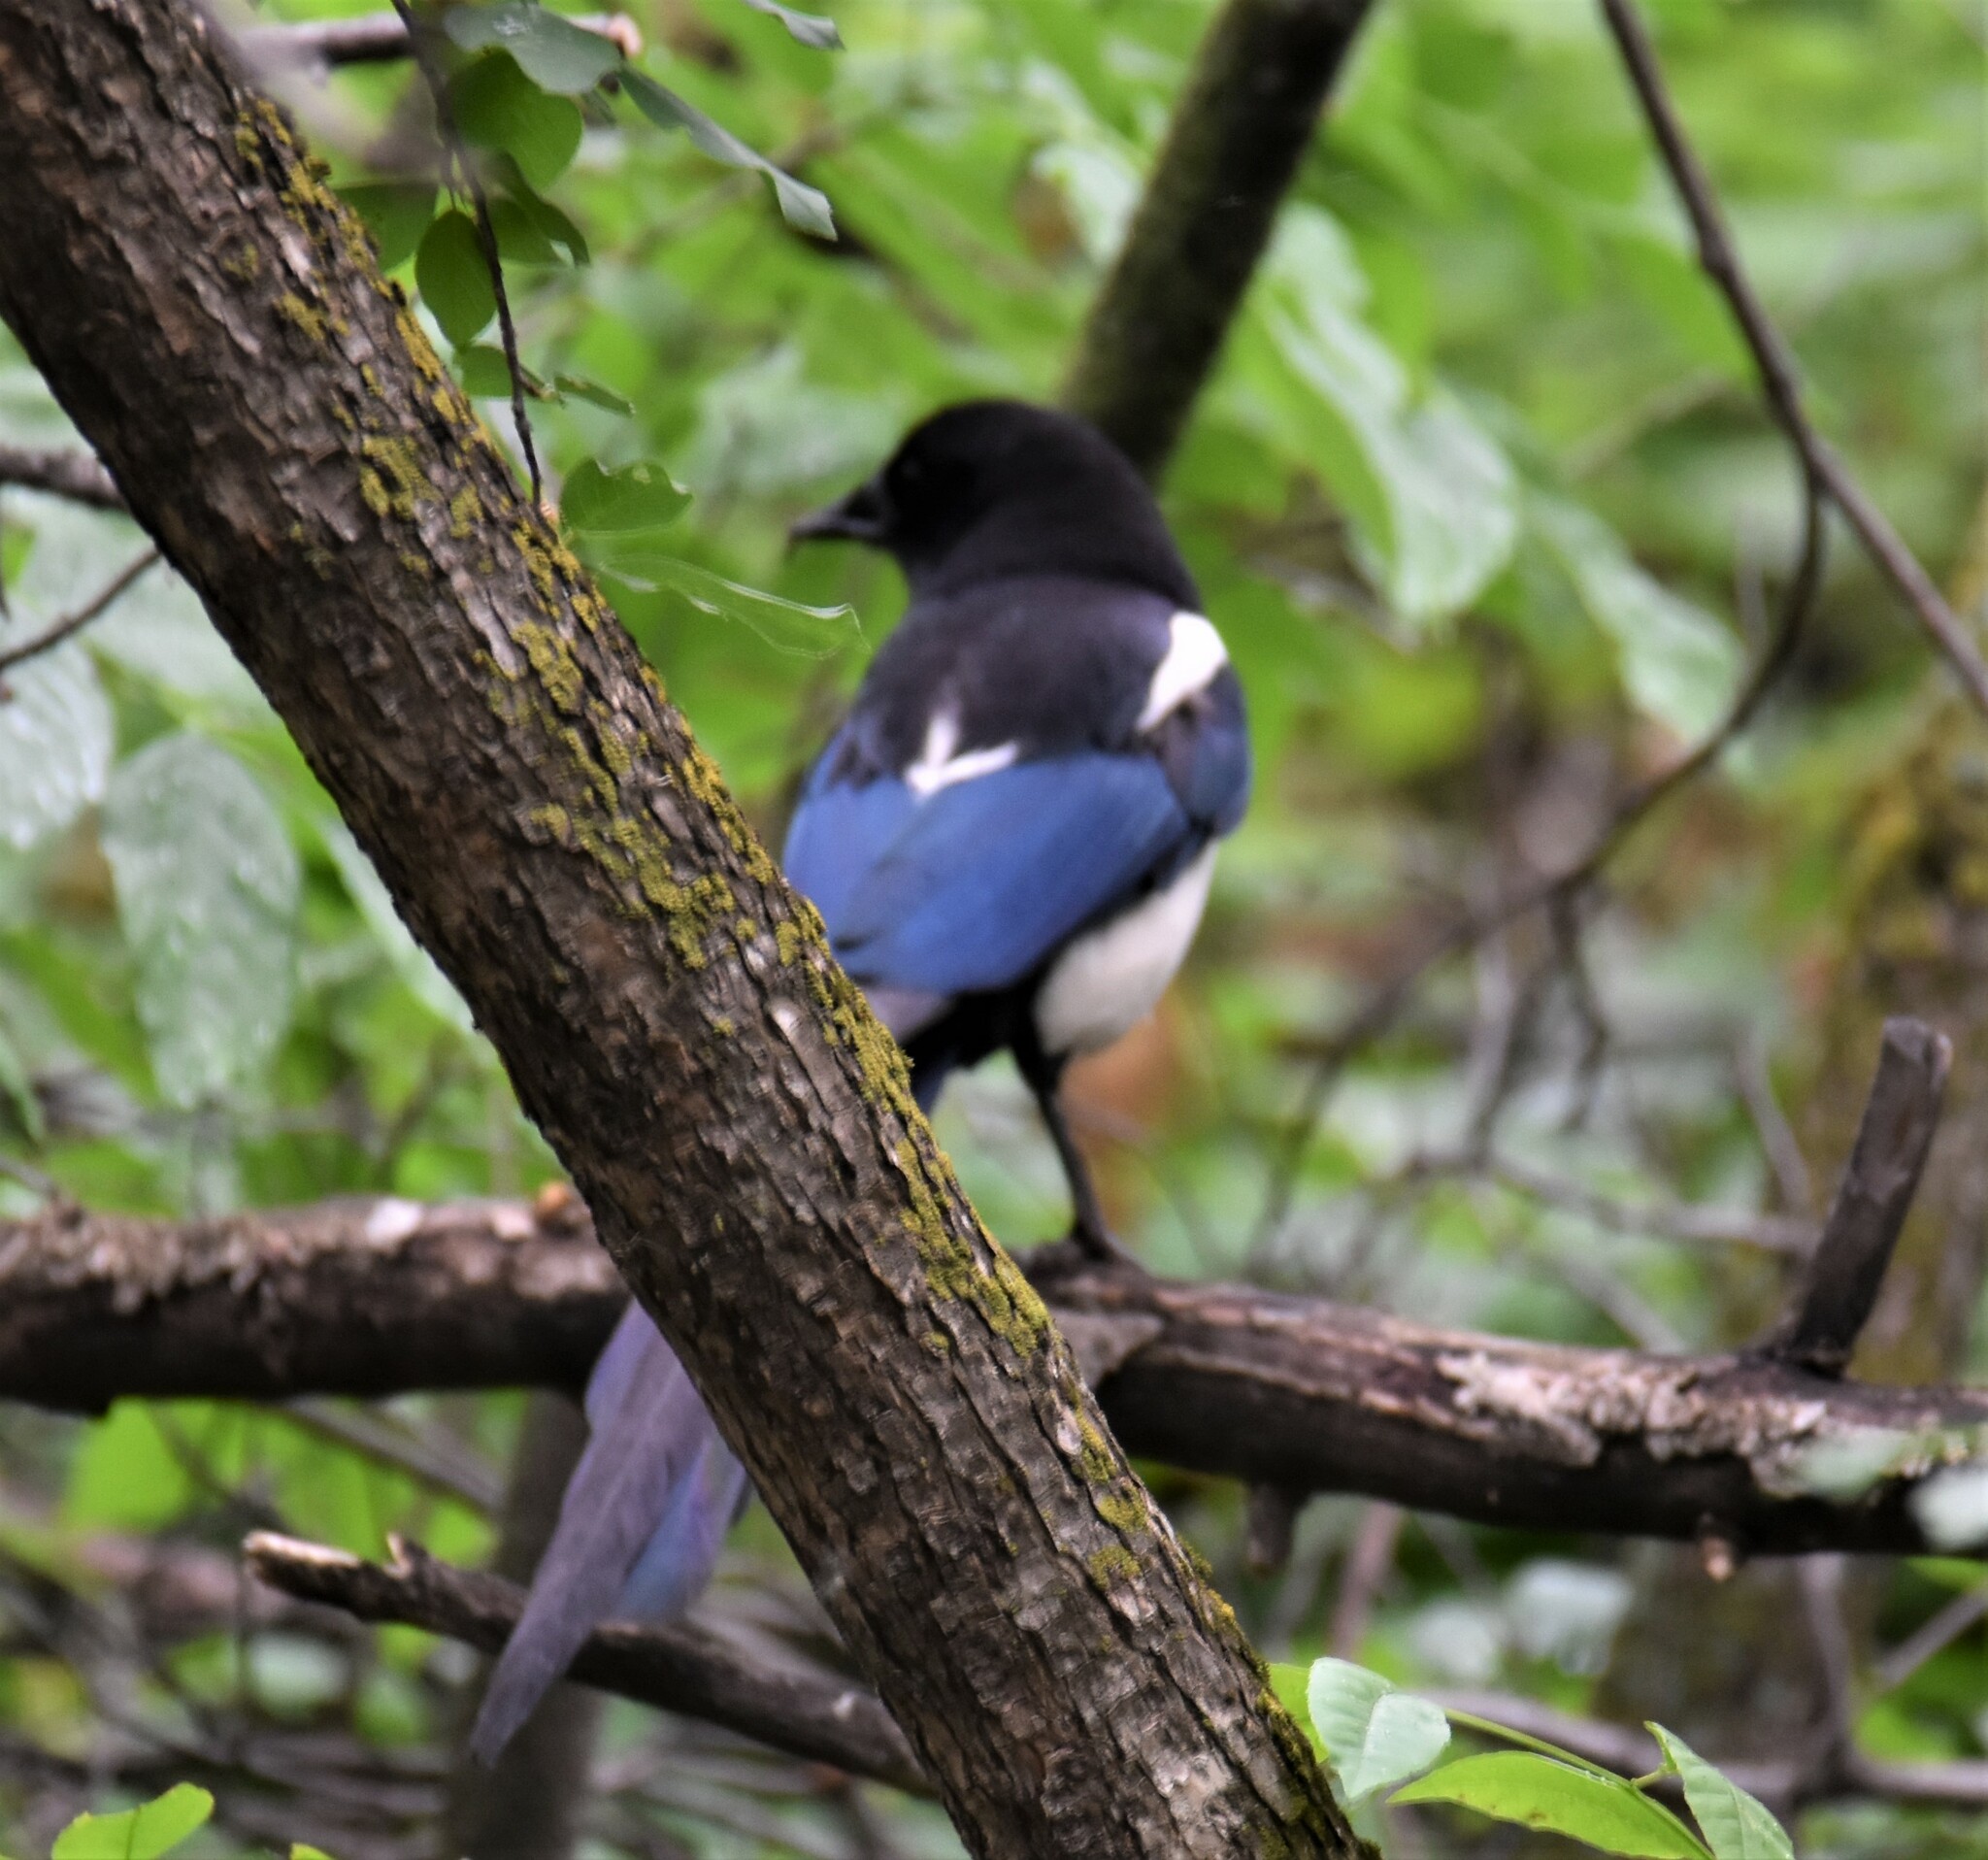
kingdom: Animalia
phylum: Chordata
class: Aves
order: Passeriformes
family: Corvidae
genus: Pica
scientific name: Pica hudsonia
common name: Black-billed magpie
